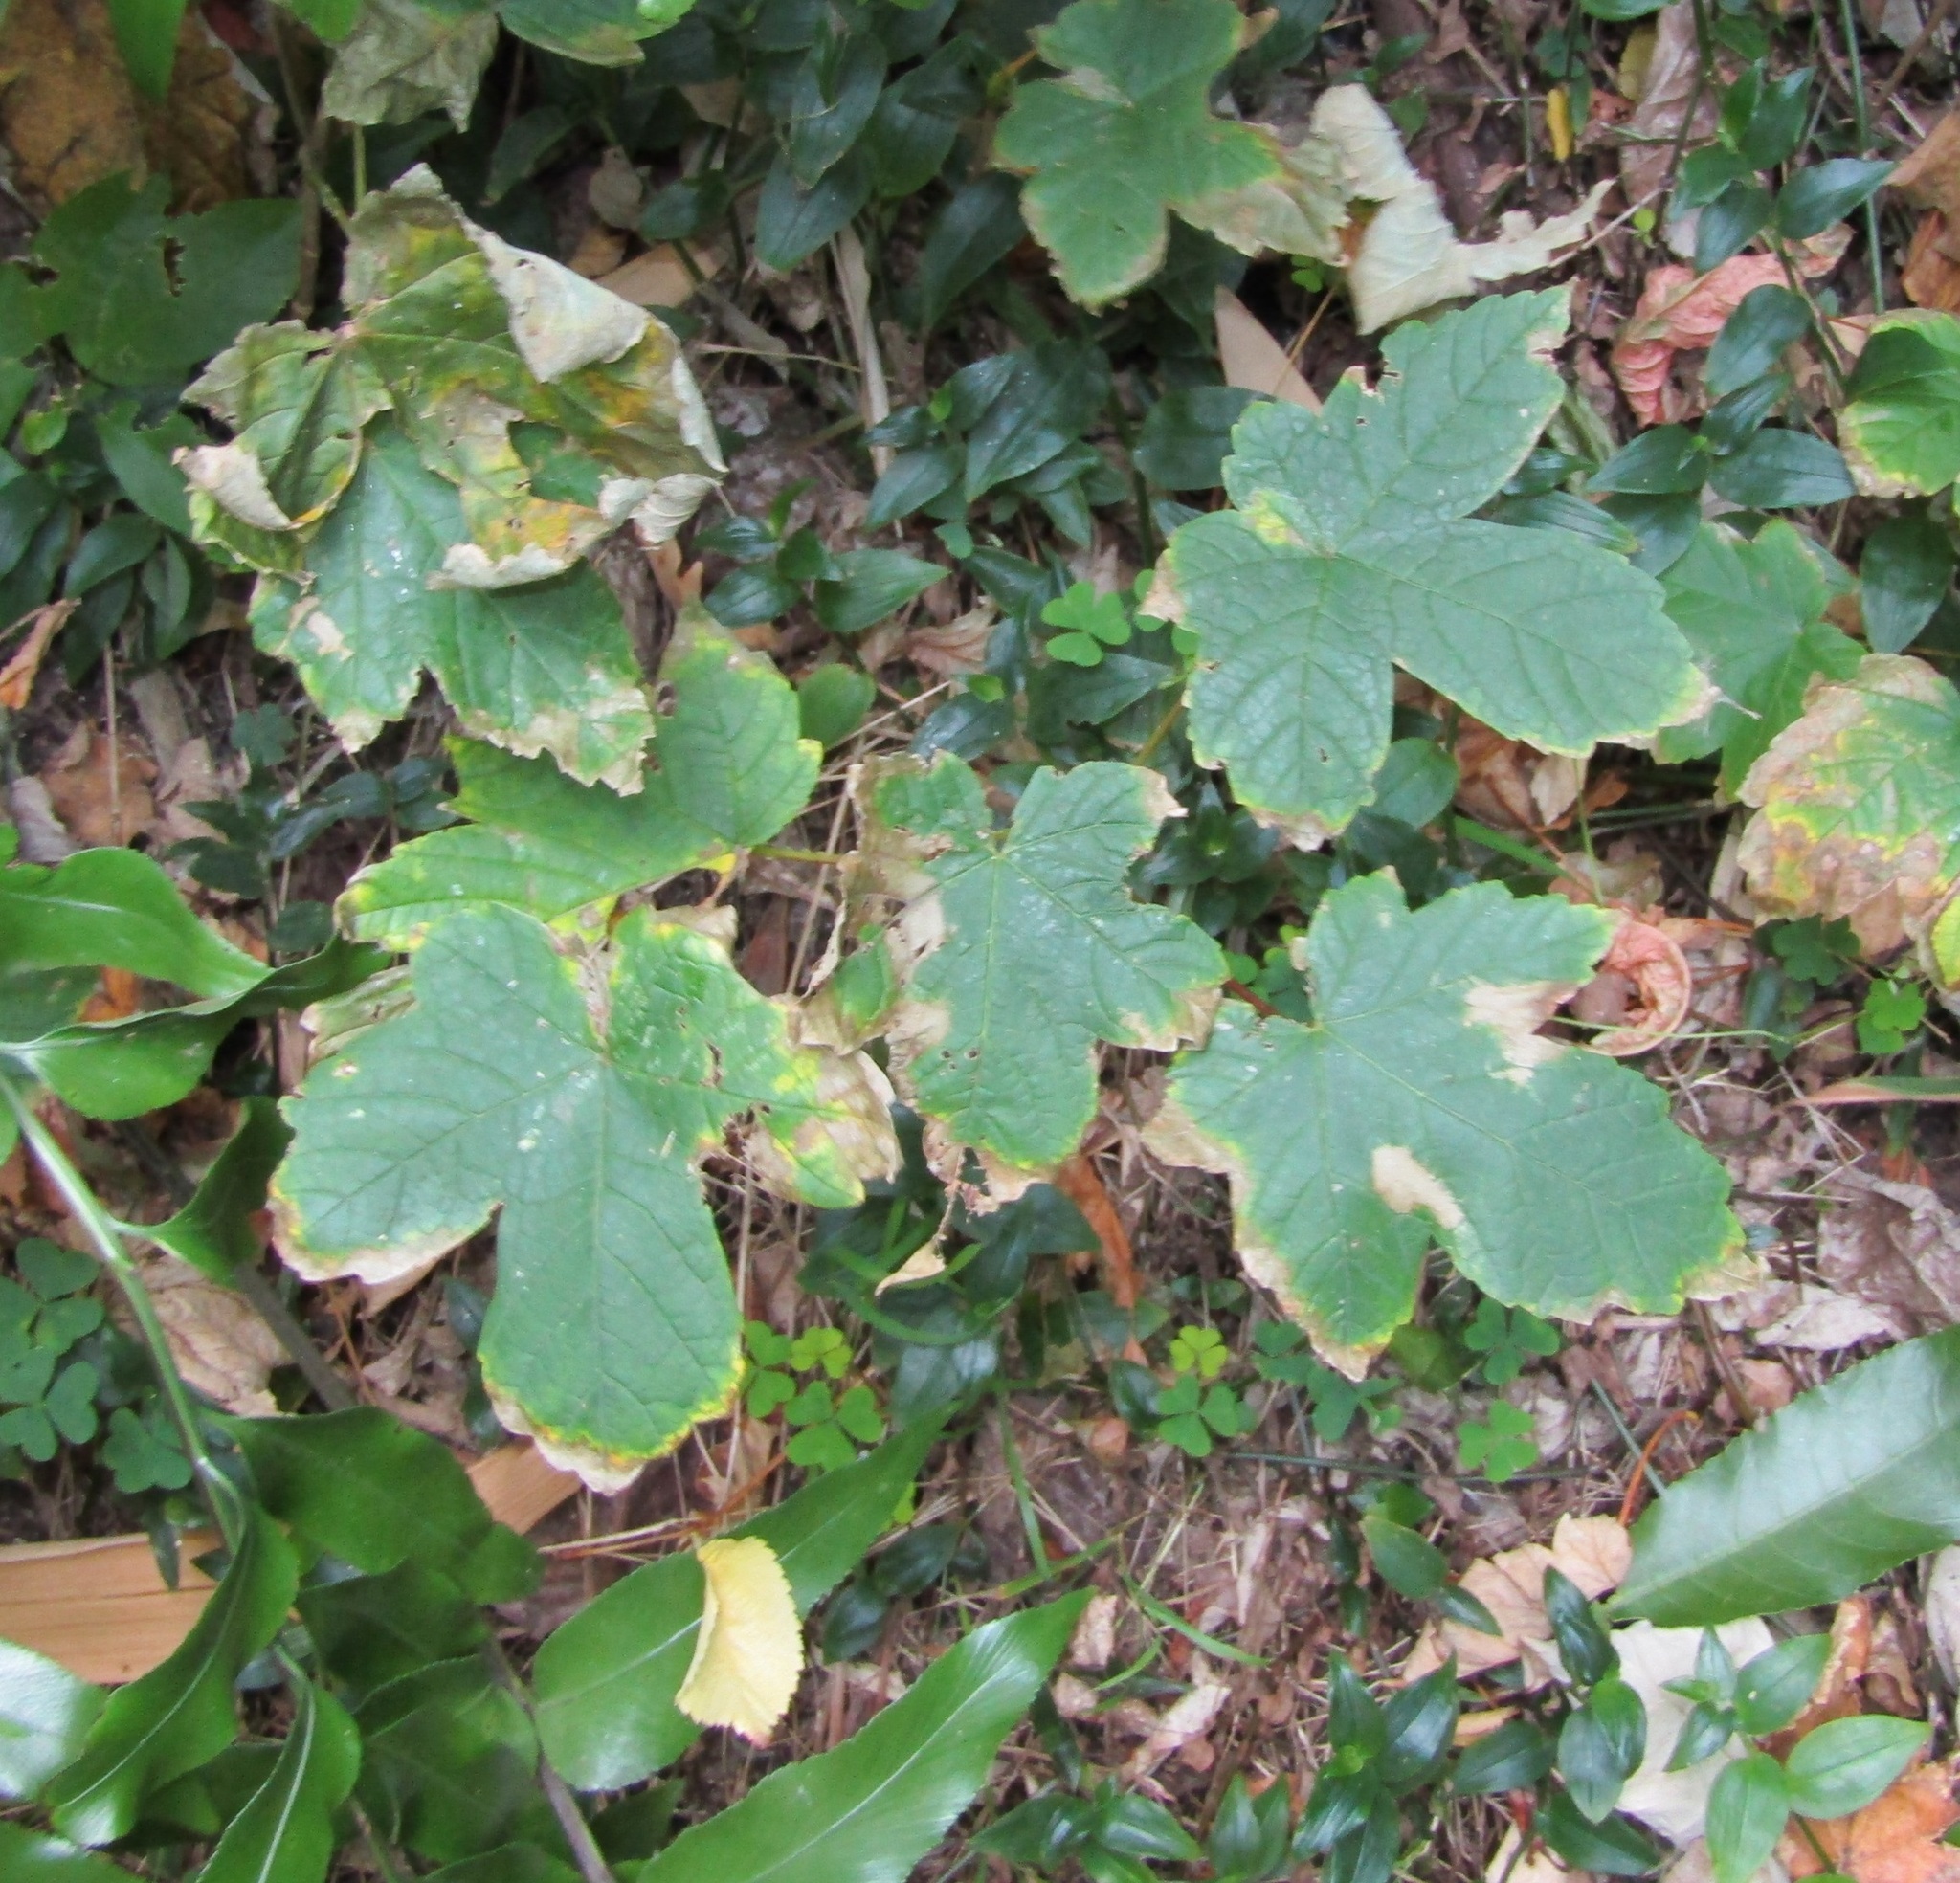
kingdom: Plantae
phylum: Tracheophyta
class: Magnoliopsida
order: Sapindales
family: Sapindaceae
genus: Acer
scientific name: Acer pseudoplatanus
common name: Sycamore
